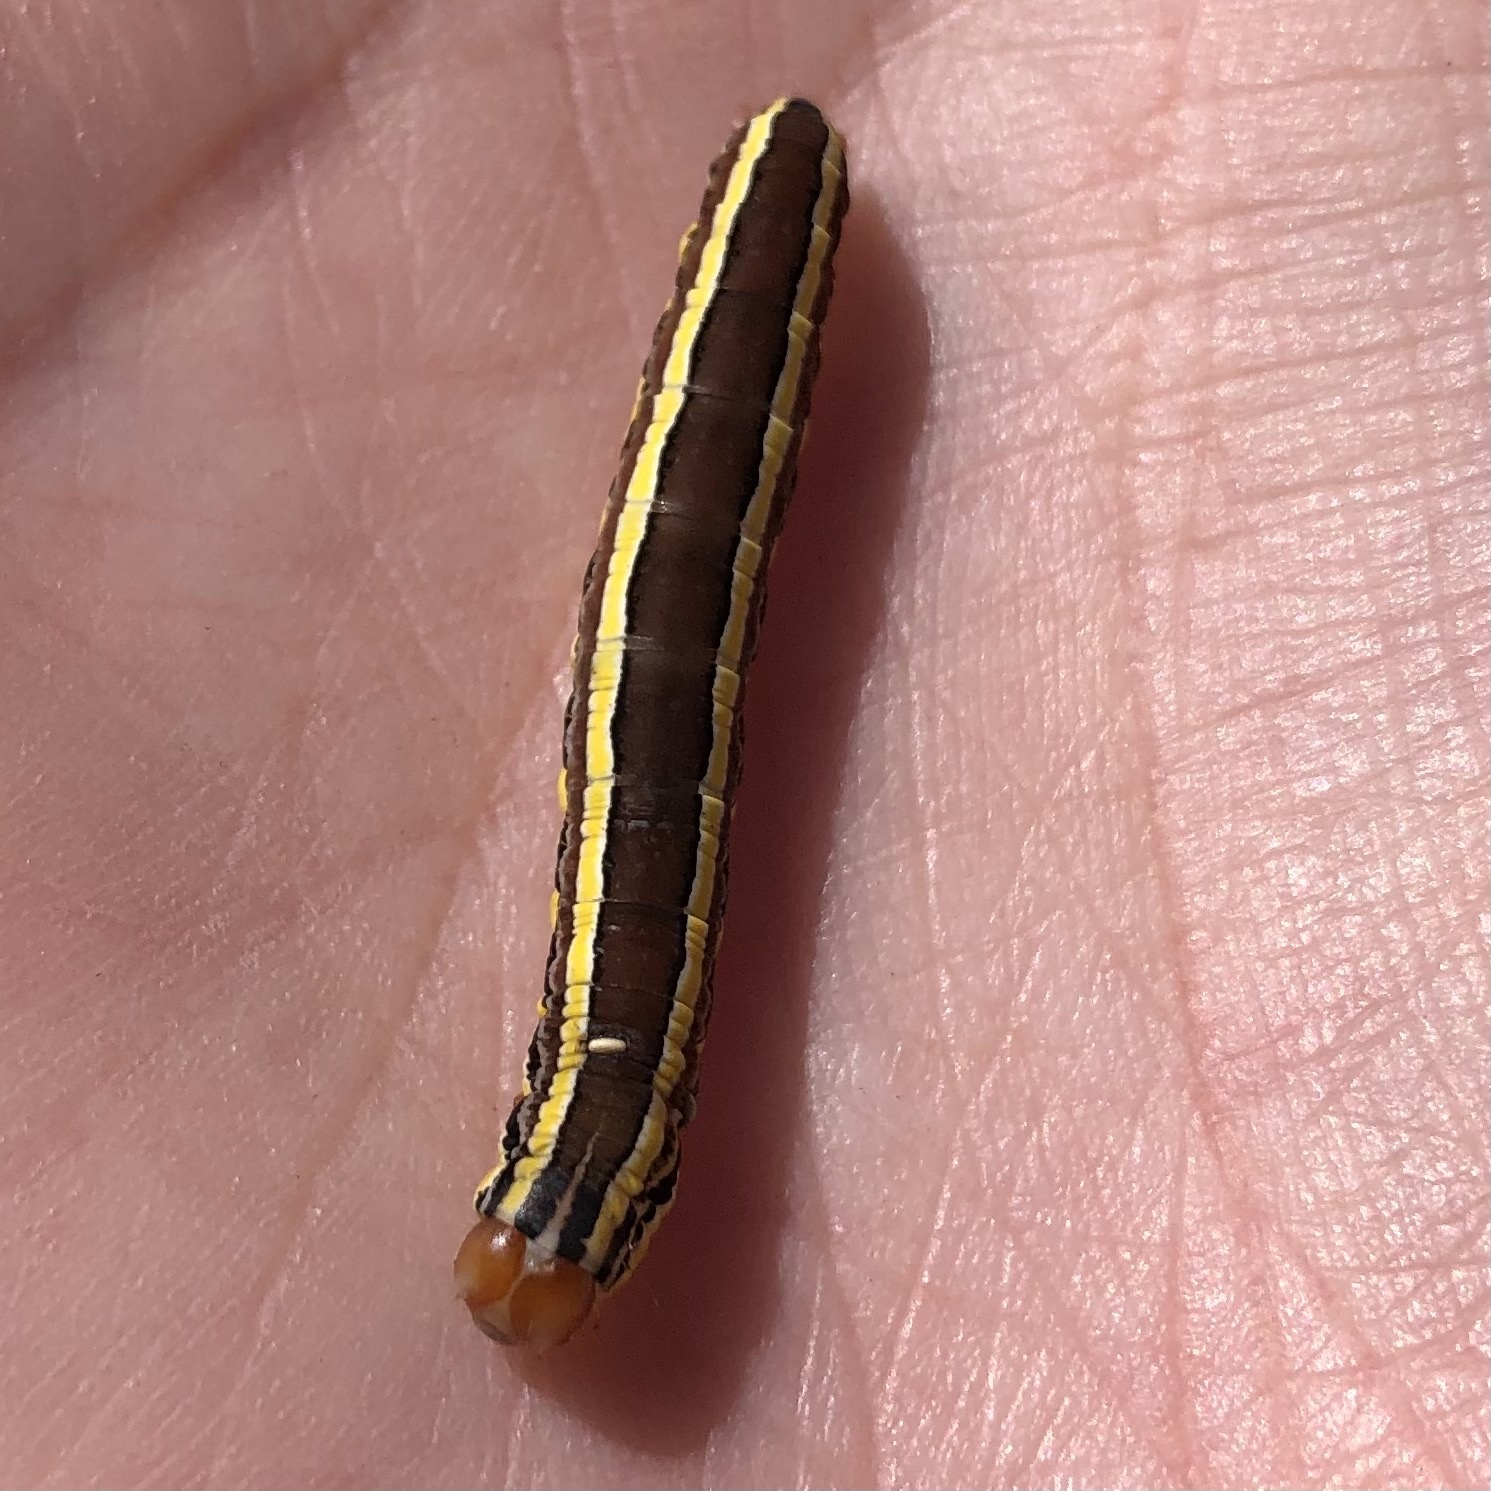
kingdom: Animalia
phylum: Arthropoda
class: Insecta
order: Lepidoptera
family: Noctuidae
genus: Trichordestra
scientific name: Trichordestra legitima
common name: Striped garden caterpillar
